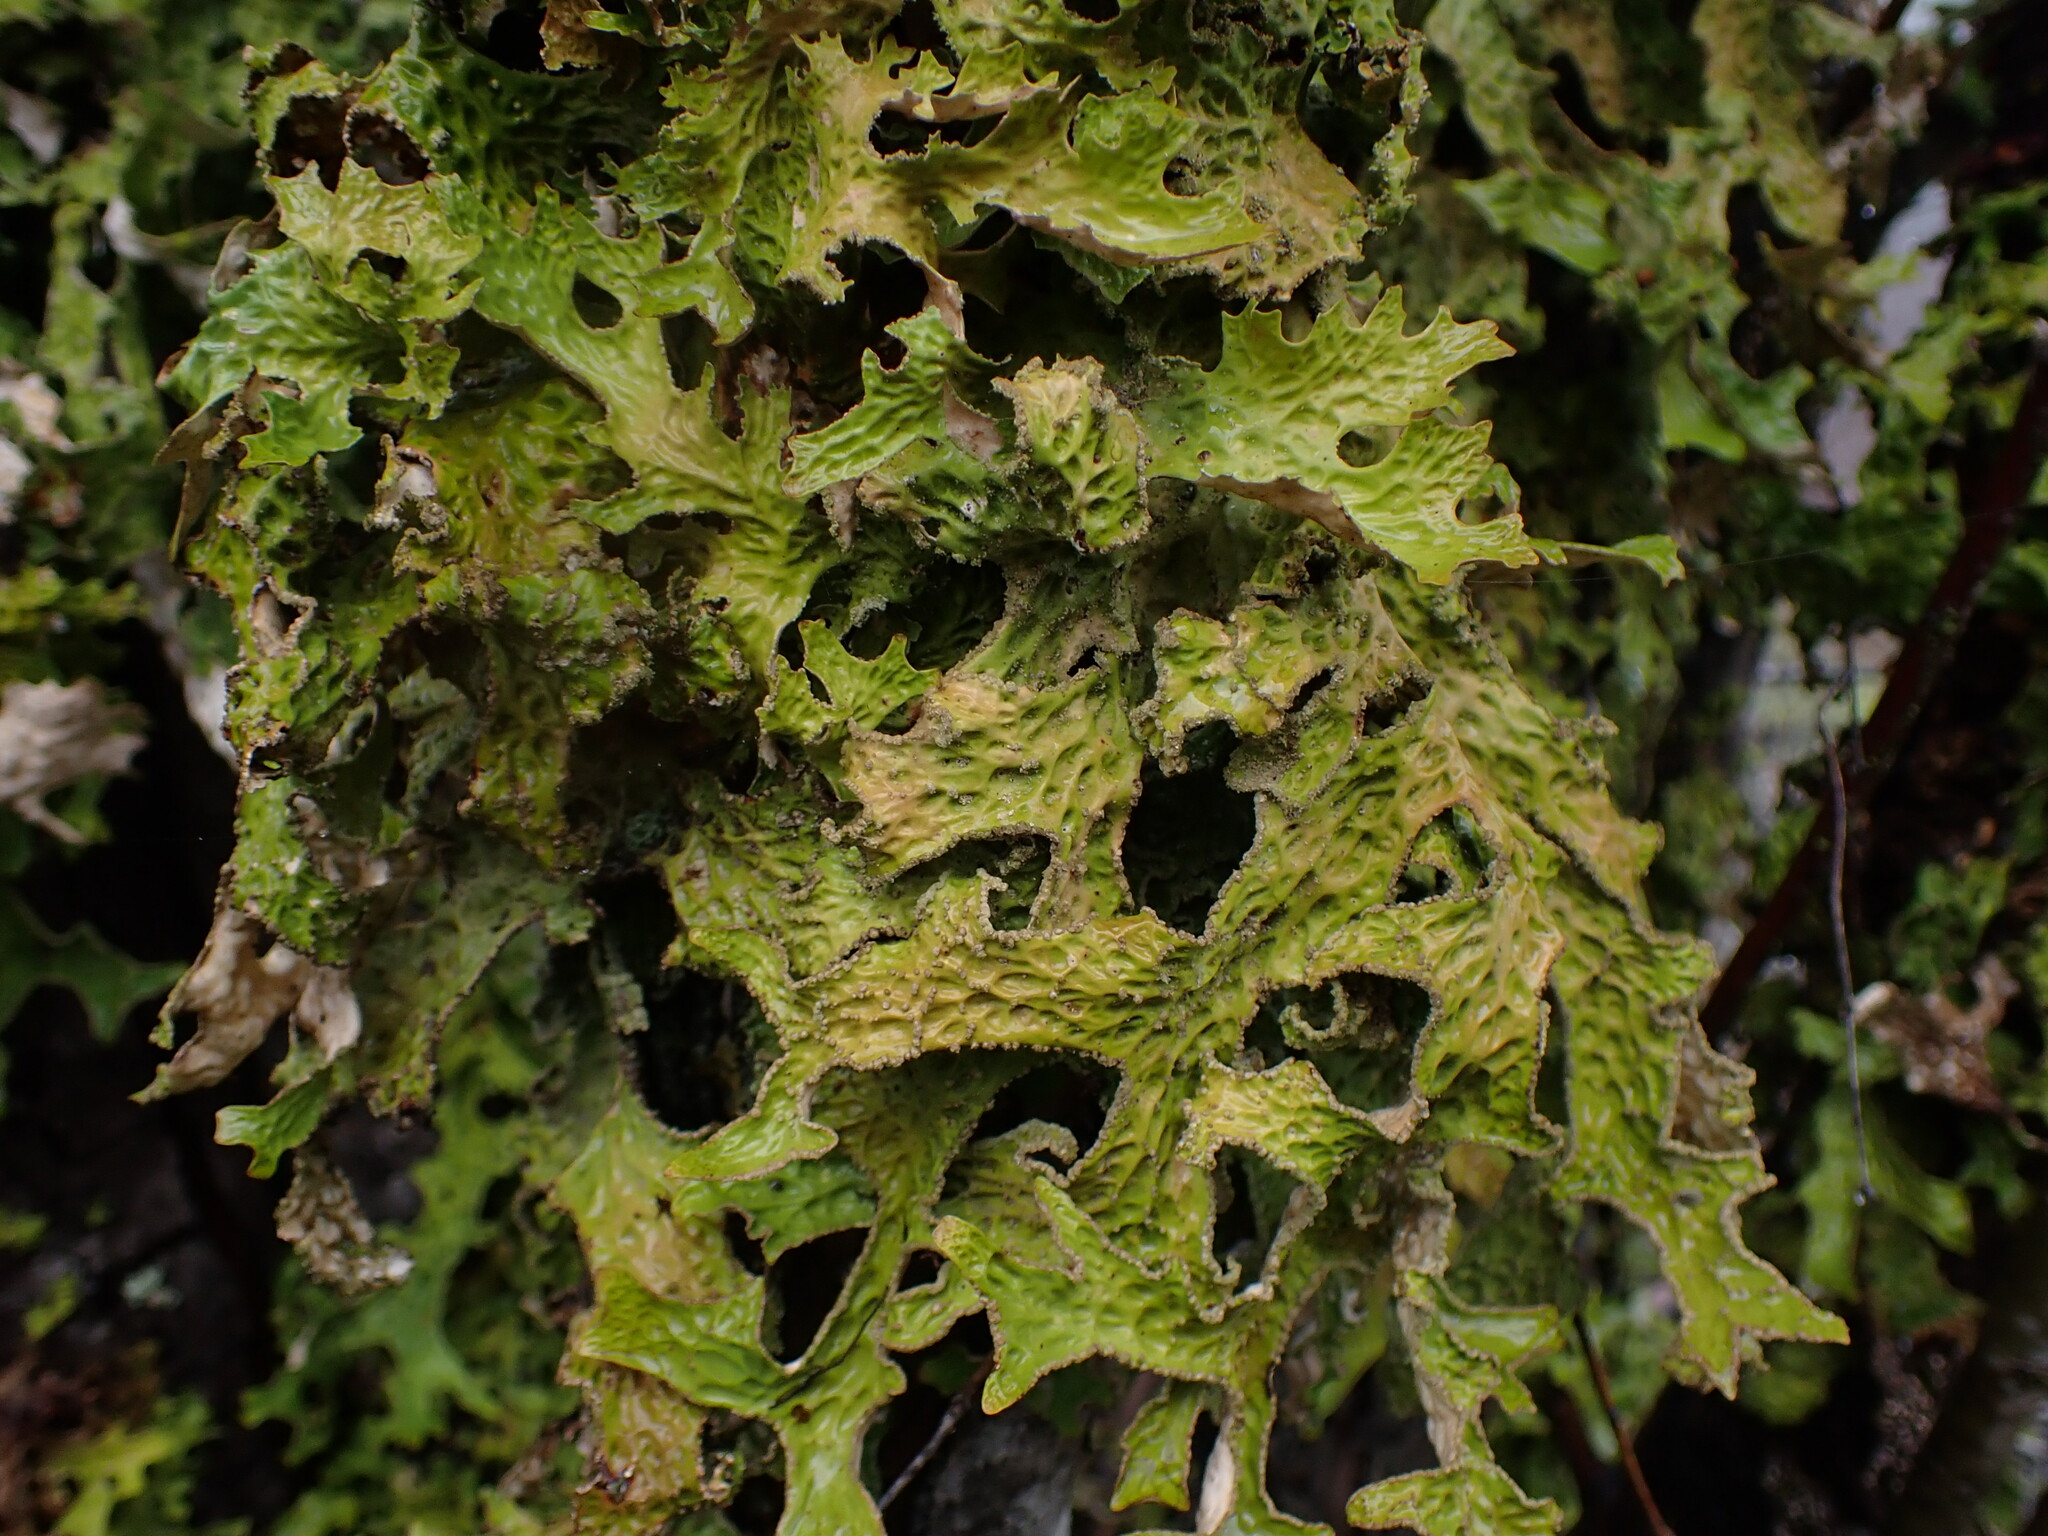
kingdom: Fungi
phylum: Ascomycota
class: Lecanoromycetes
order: Peltigerales
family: Lobariaceae
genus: Lobaria
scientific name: Lobaria pulmonaria
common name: Lungwort
